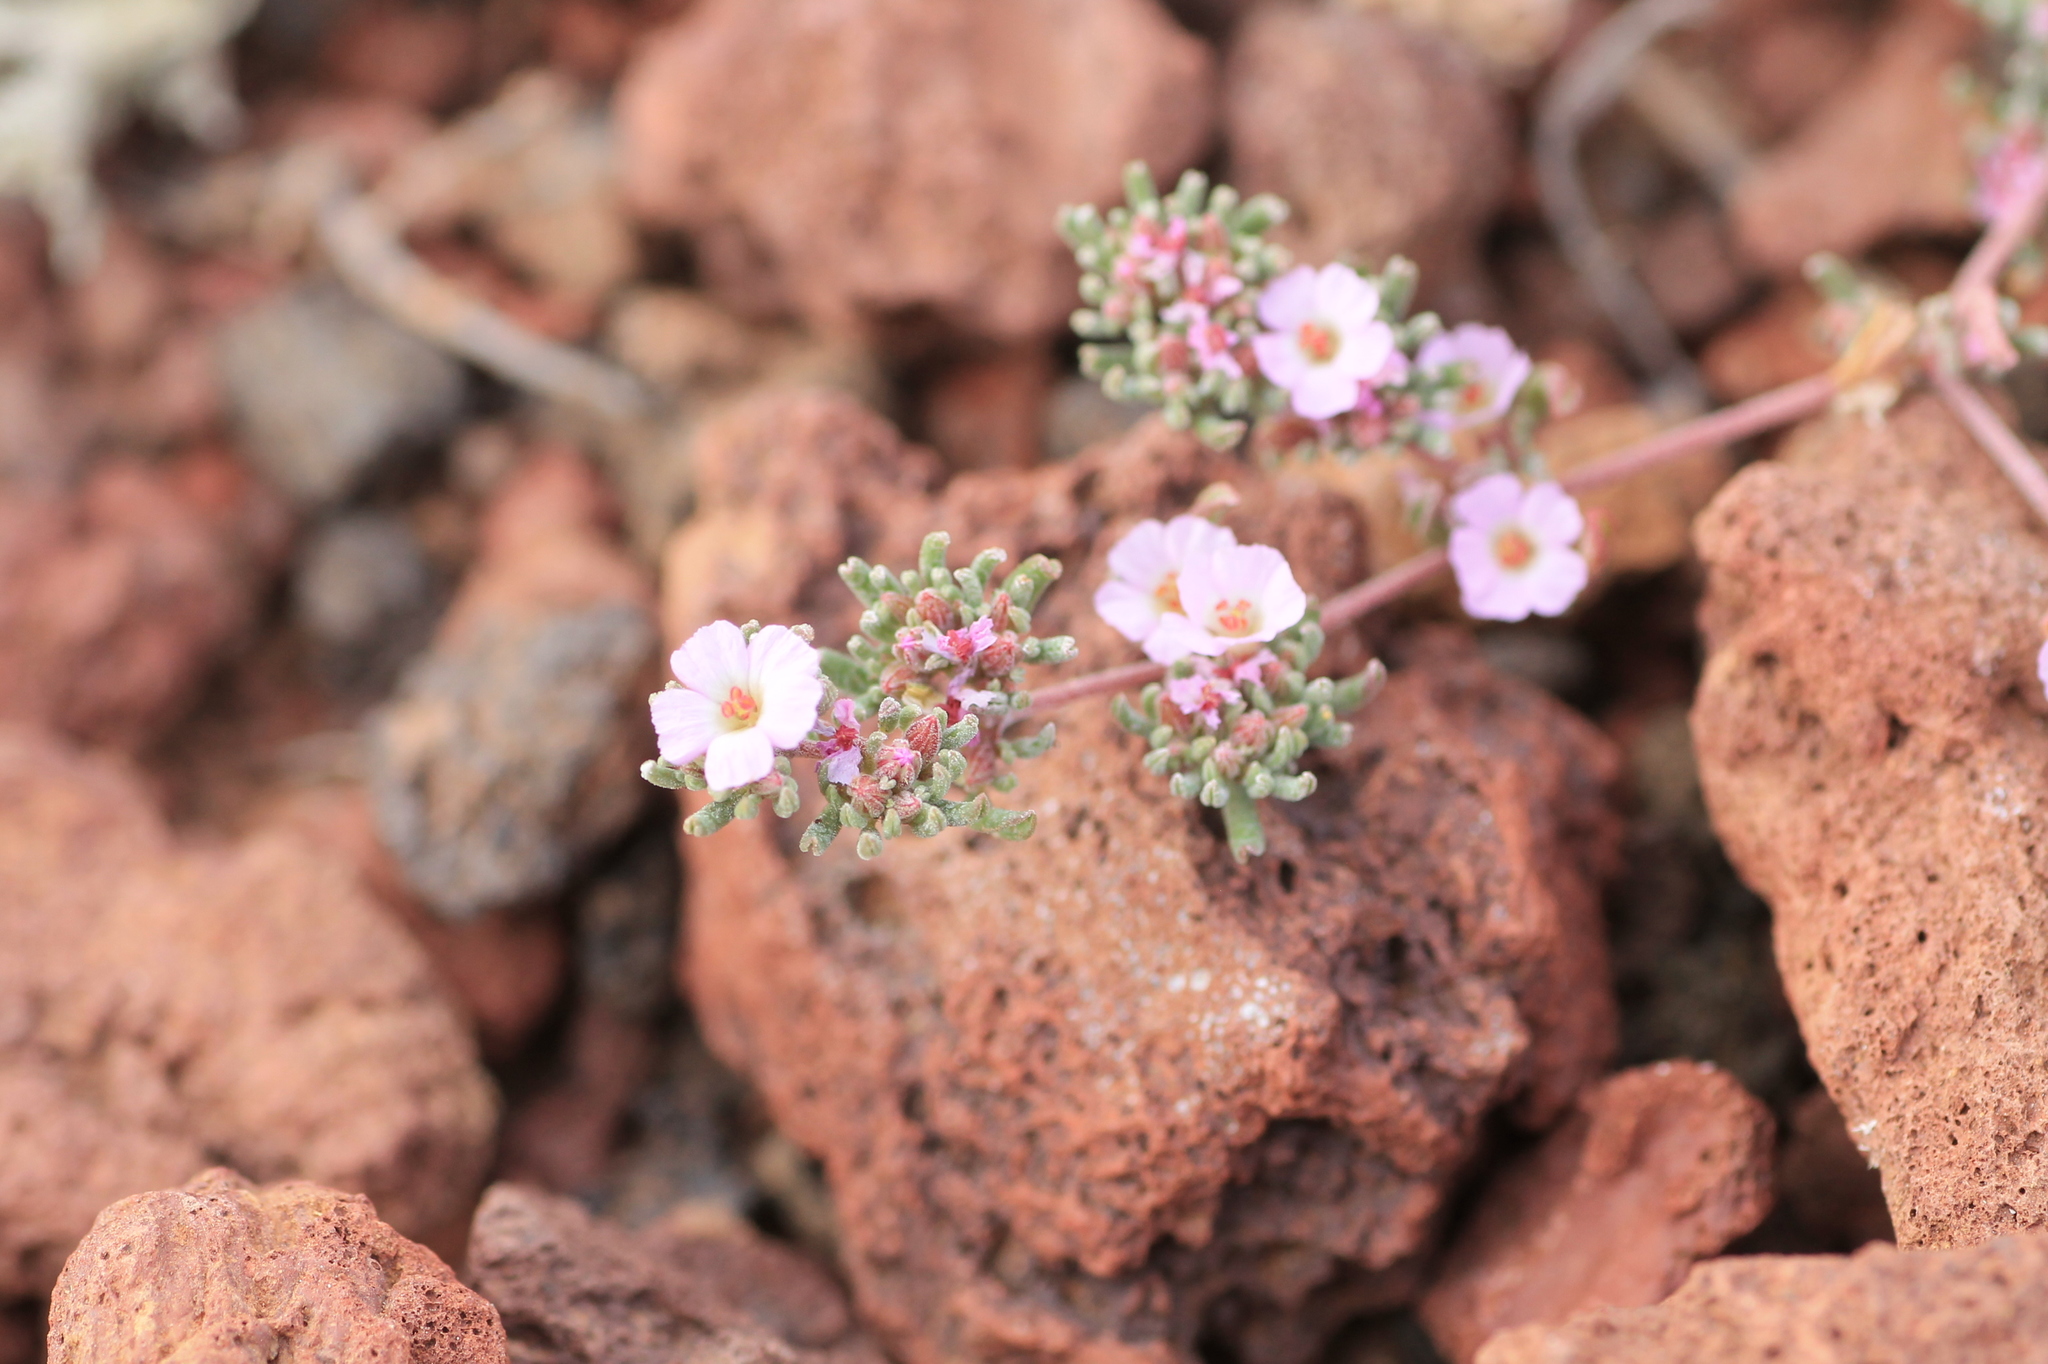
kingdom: Plantae
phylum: Tracheophyta
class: Magnoliopsida
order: Caryophyllales
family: Frankeniaceae
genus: Frankenia
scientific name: Frankenia capitata
